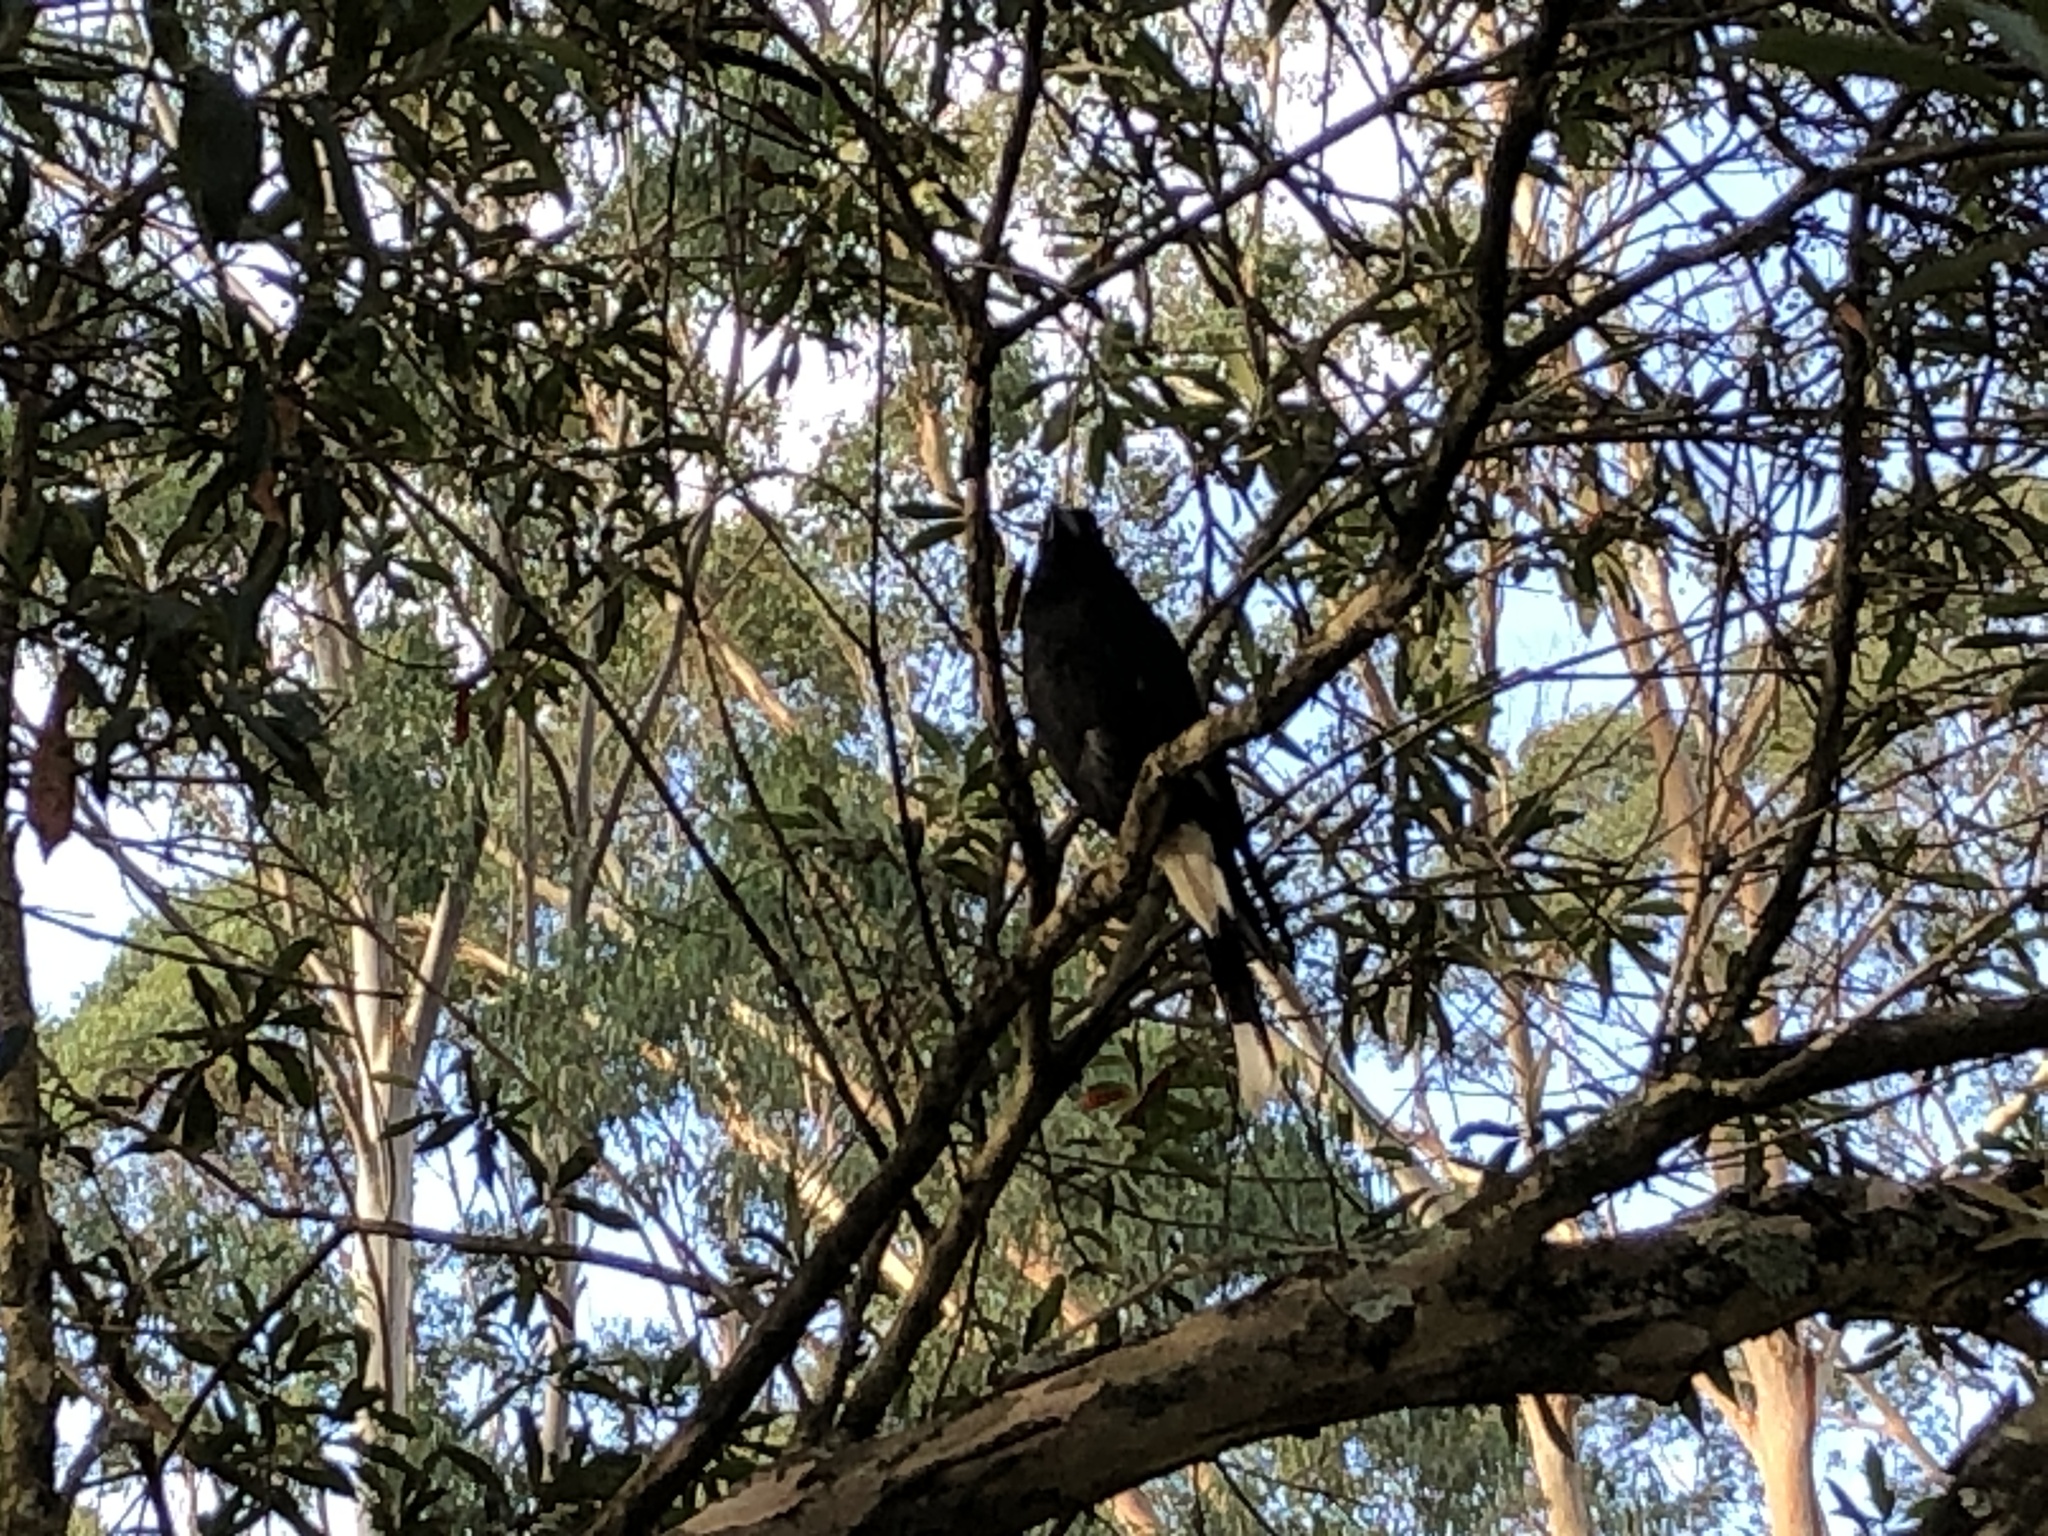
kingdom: Animalia
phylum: Chordata
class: Aves
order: Passeriformes
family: Cracticidae
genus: Strepera
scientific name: Strepera graculina
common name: Pied currawong
